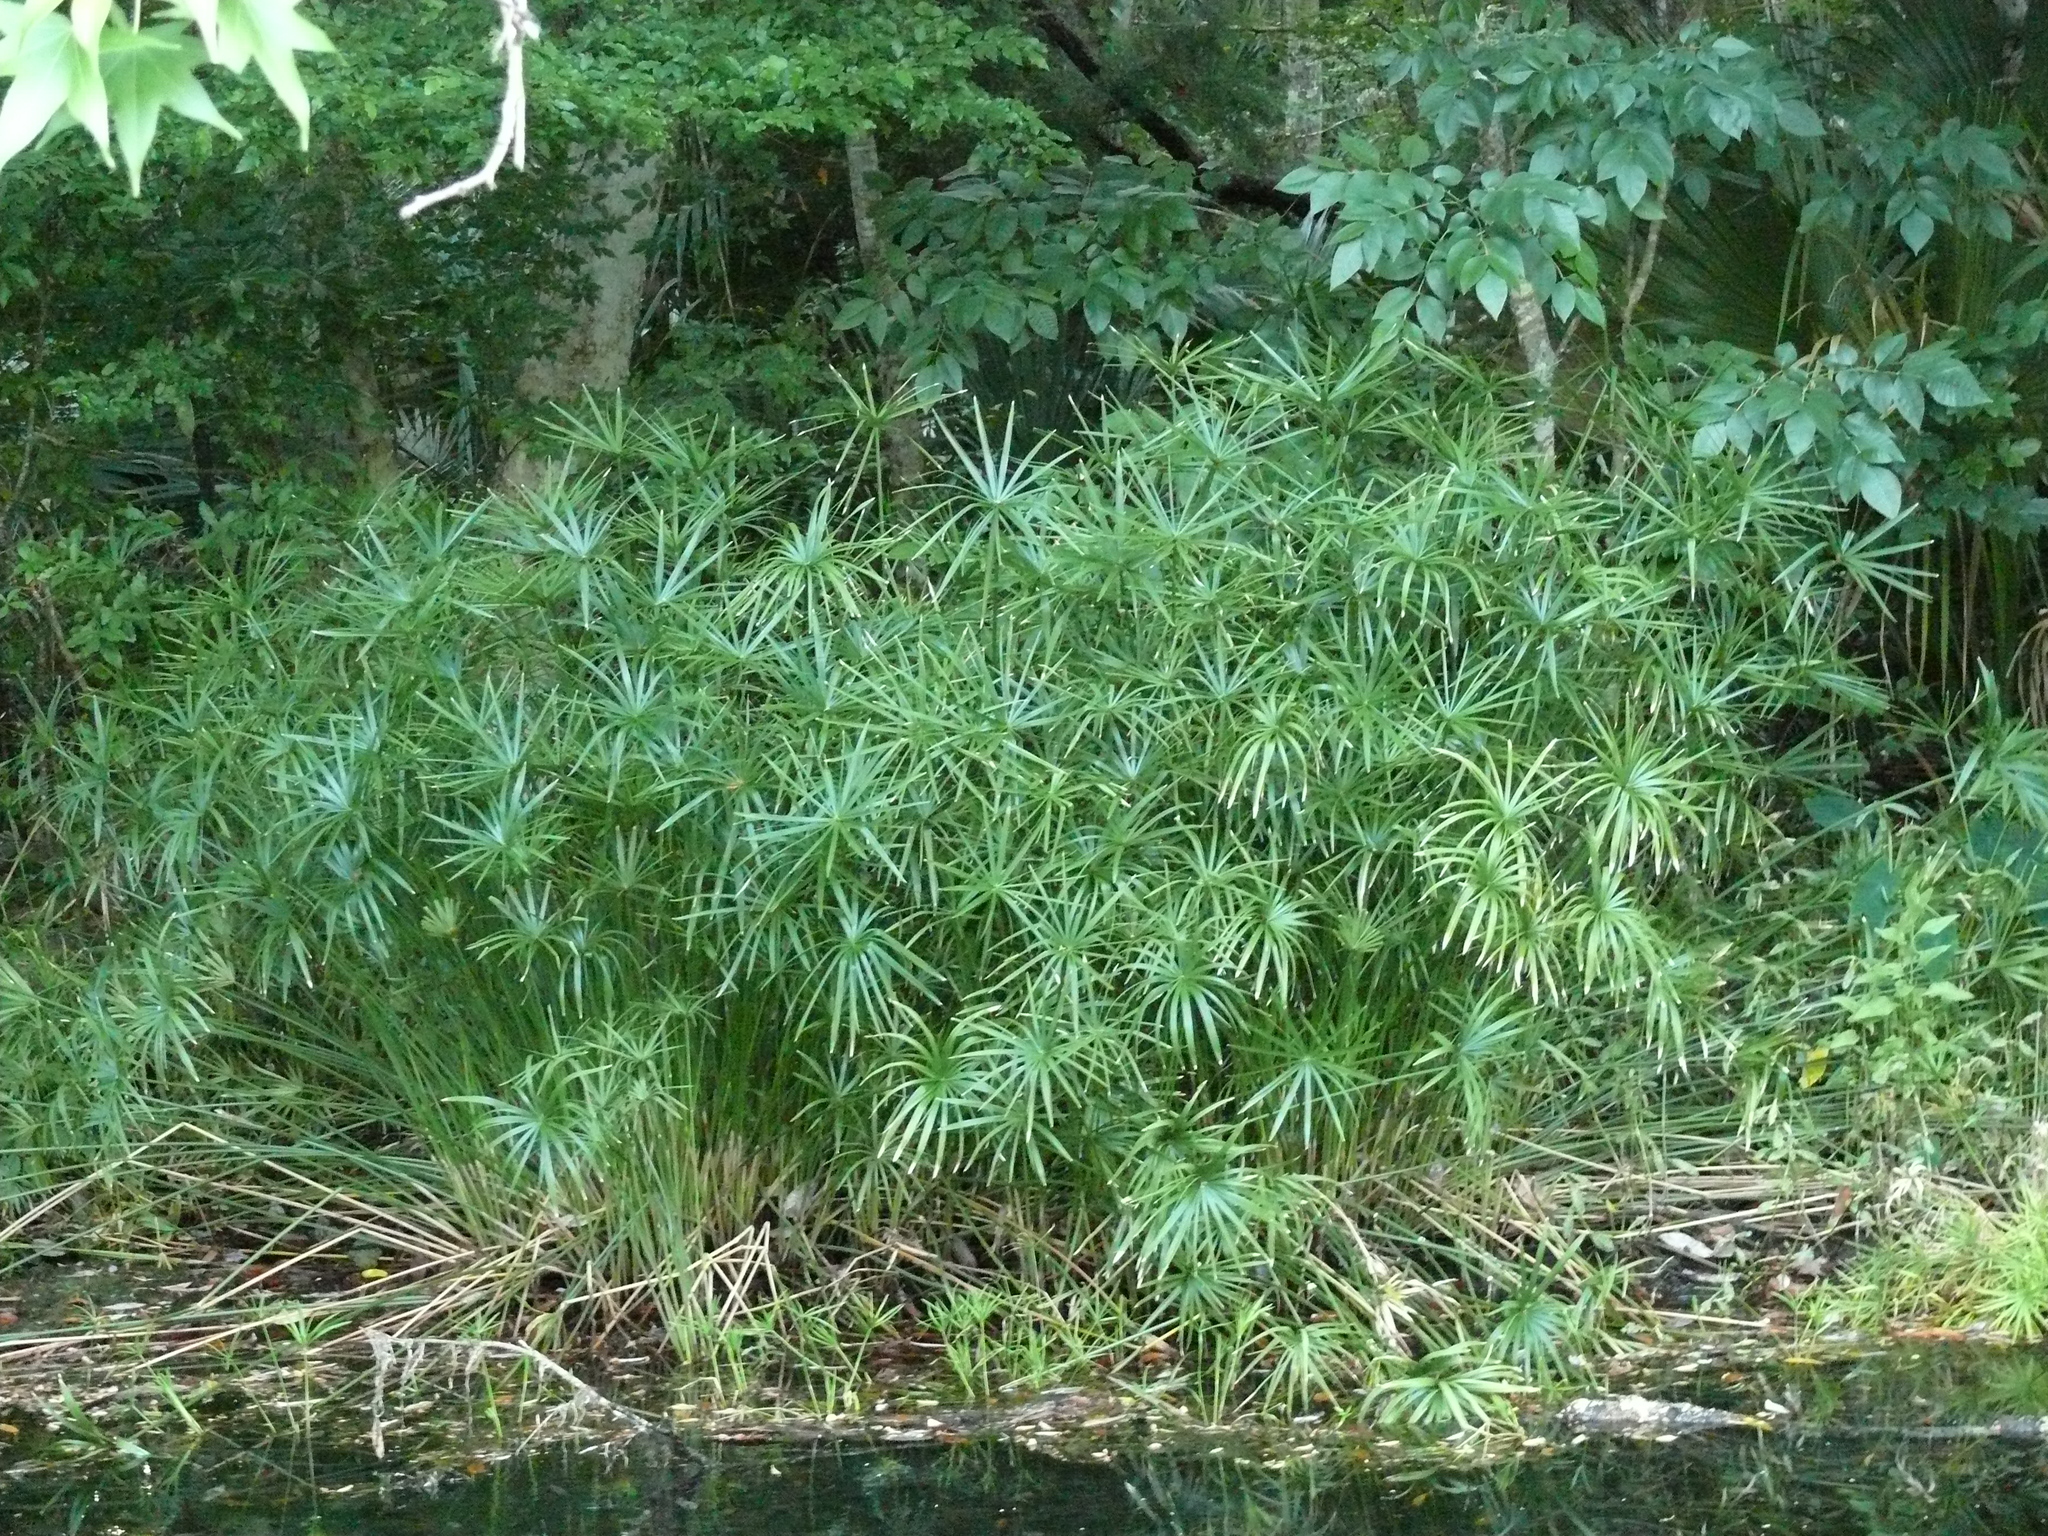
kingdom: Plantae
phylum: Tracheophyta
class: Liliopsida
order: Poales
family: Cyperaceae
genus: Cyperus
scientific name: Cyperus alternifolius
